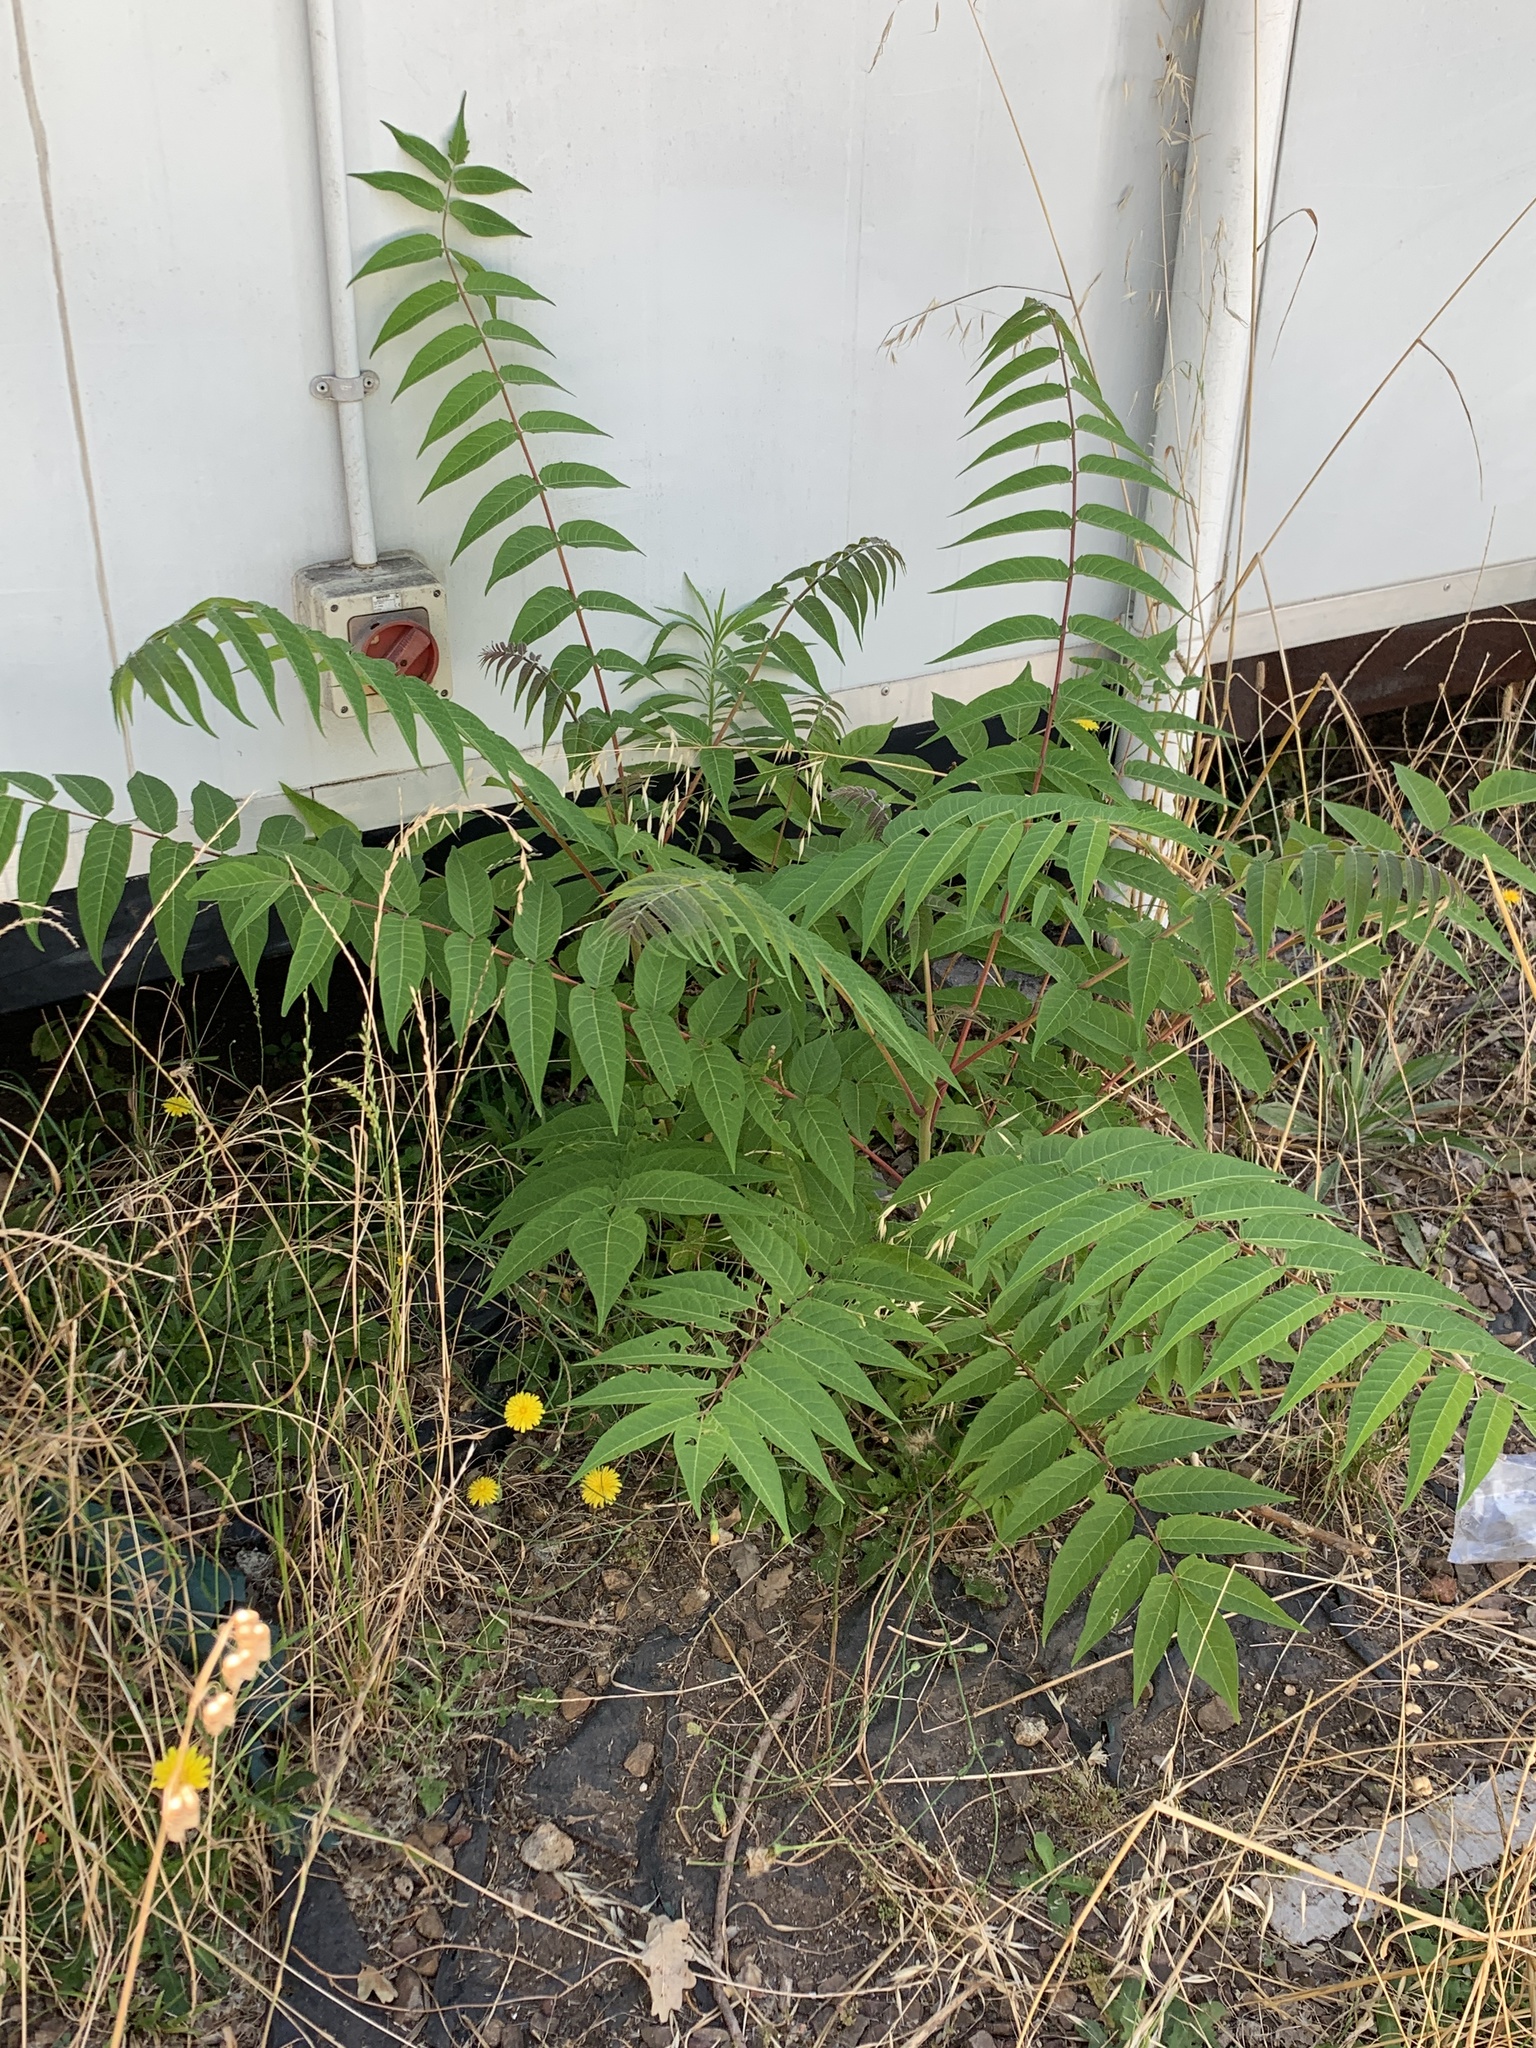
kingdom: Plantae
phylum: Tracheophyta
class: Magnoliopsida
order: Sapindales
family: Simaroubaceae
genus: Ailanthus
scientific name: Ailanthus altissima
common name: Tree-of-heaven
